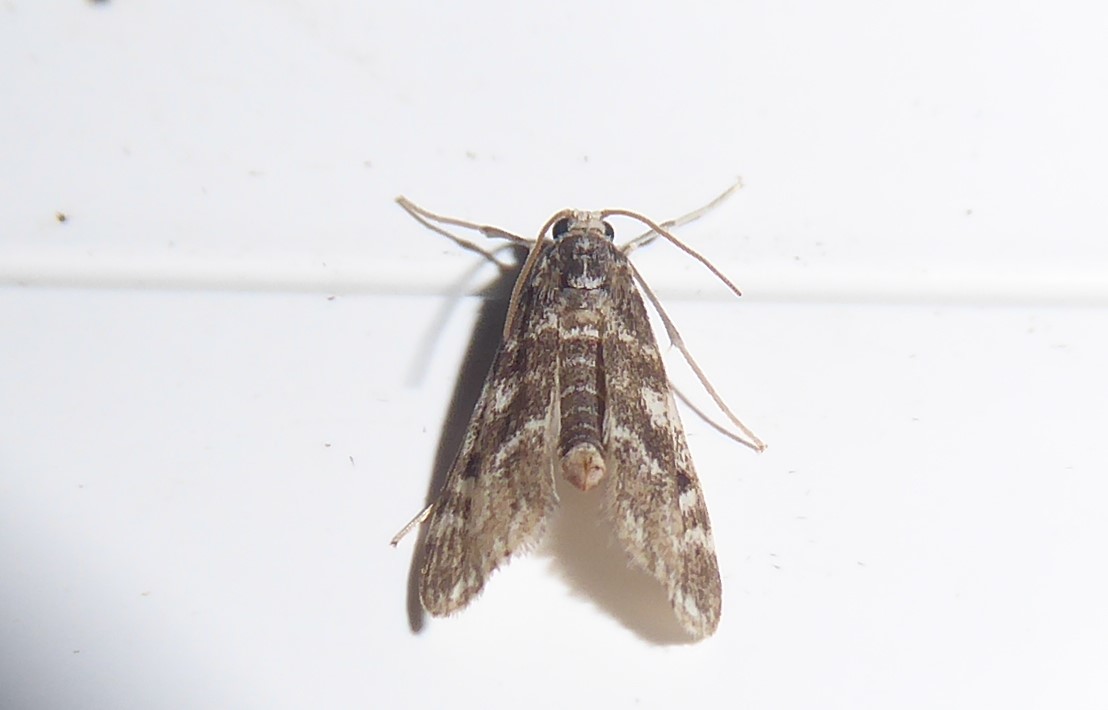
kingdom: Animalia
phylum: Arthropoda
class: Insecta
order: Lepidoptera
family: Crambidae
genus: Hygraula
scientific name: Hygraula nitens
